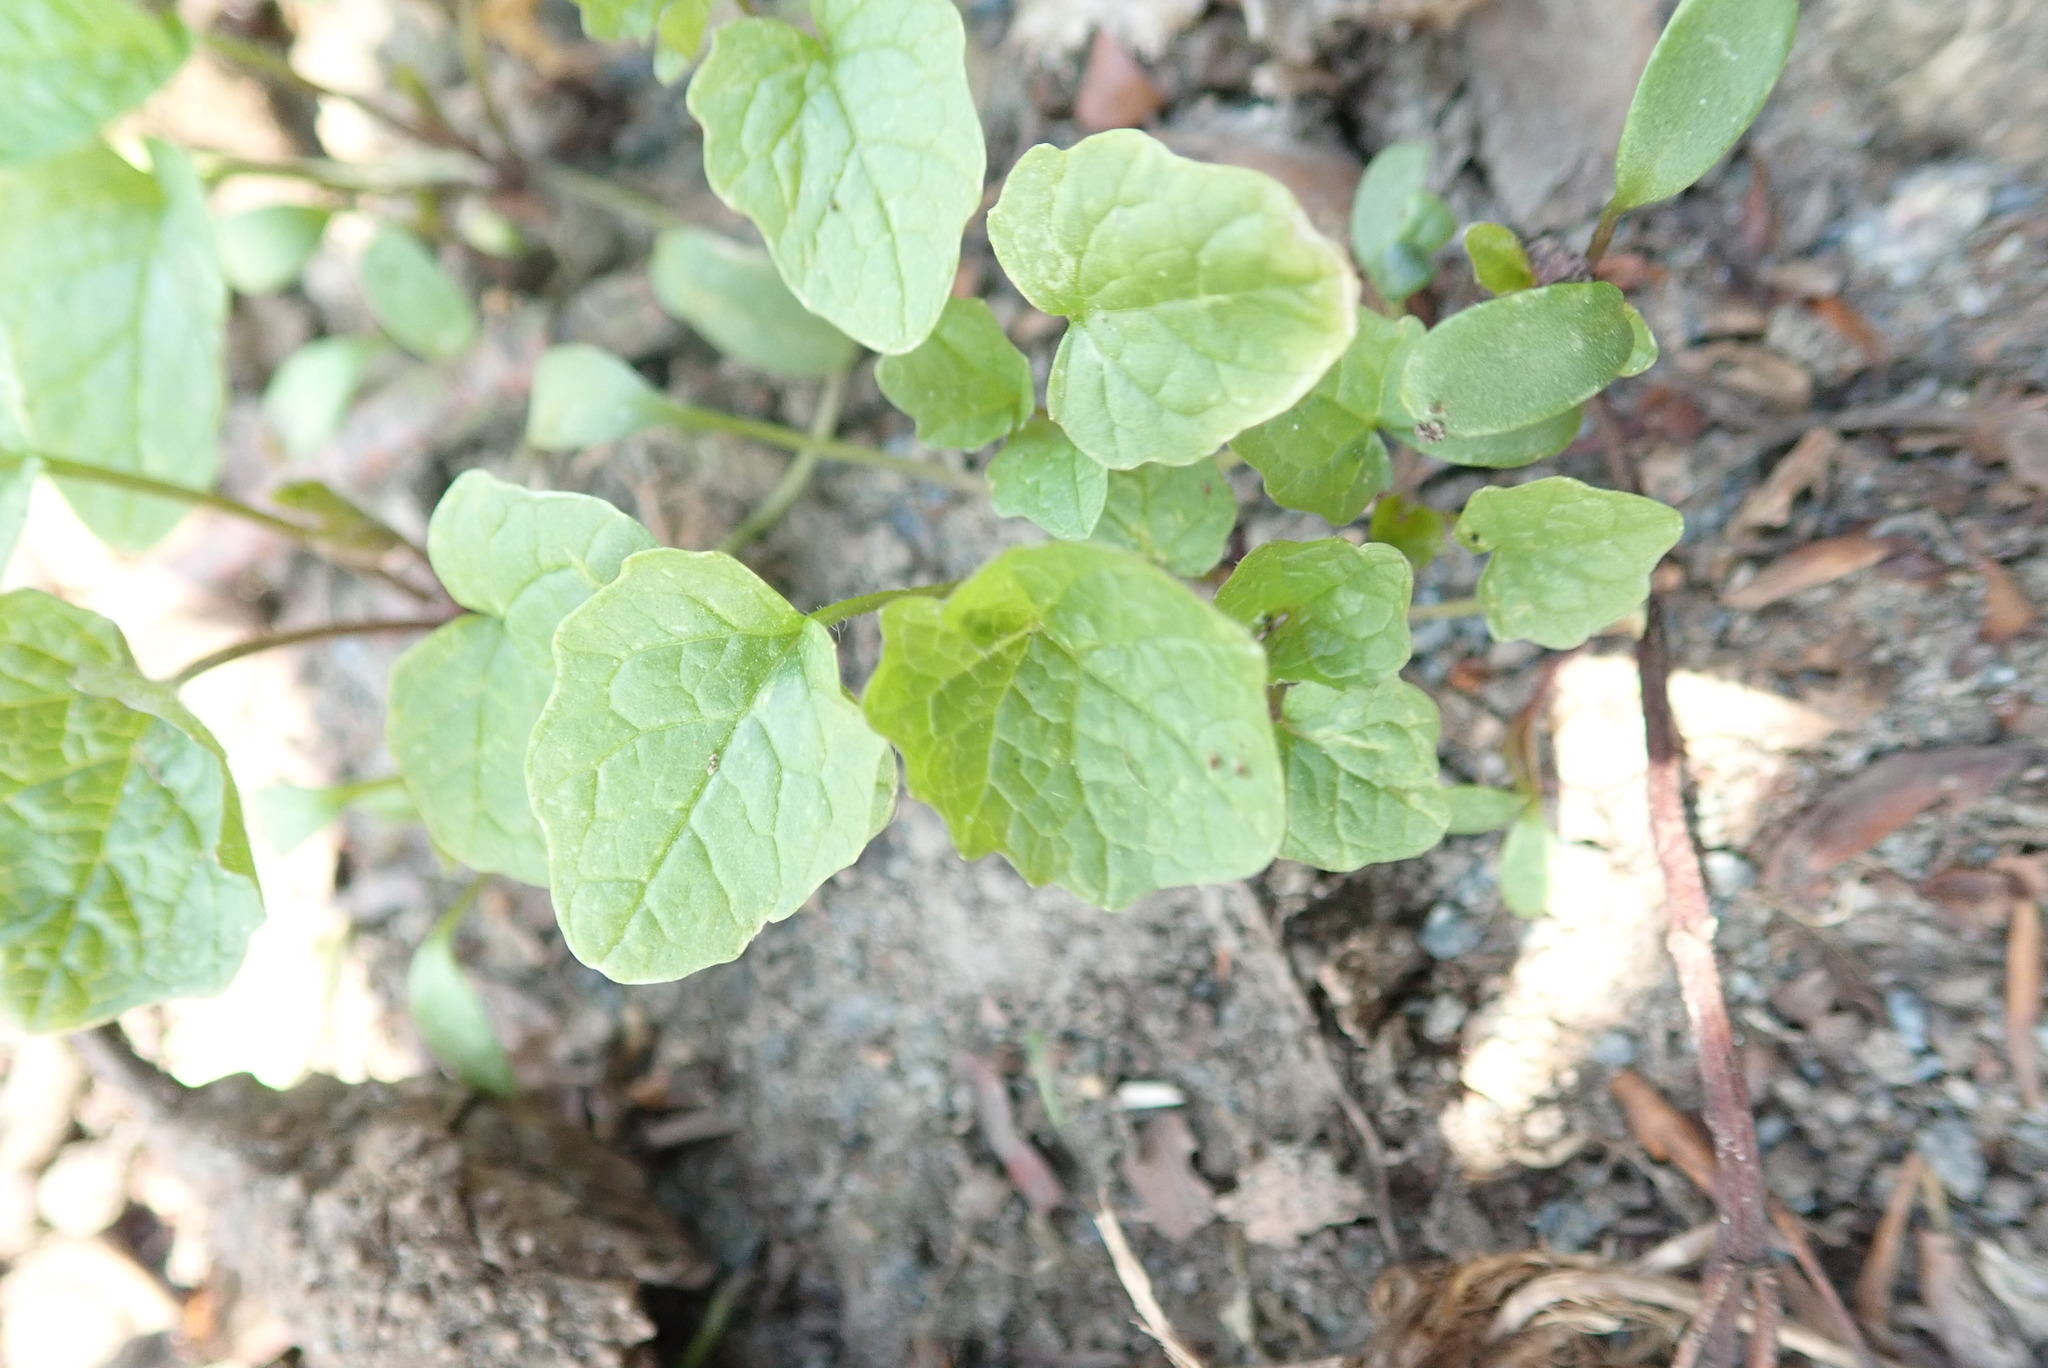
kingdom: Plantae
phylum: Tracheophyta
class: Magnoliopsida
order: Brassicales
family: Brassicaceae
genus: Alliaria
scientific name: Alliaria petiolata
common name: Garlic mustard
